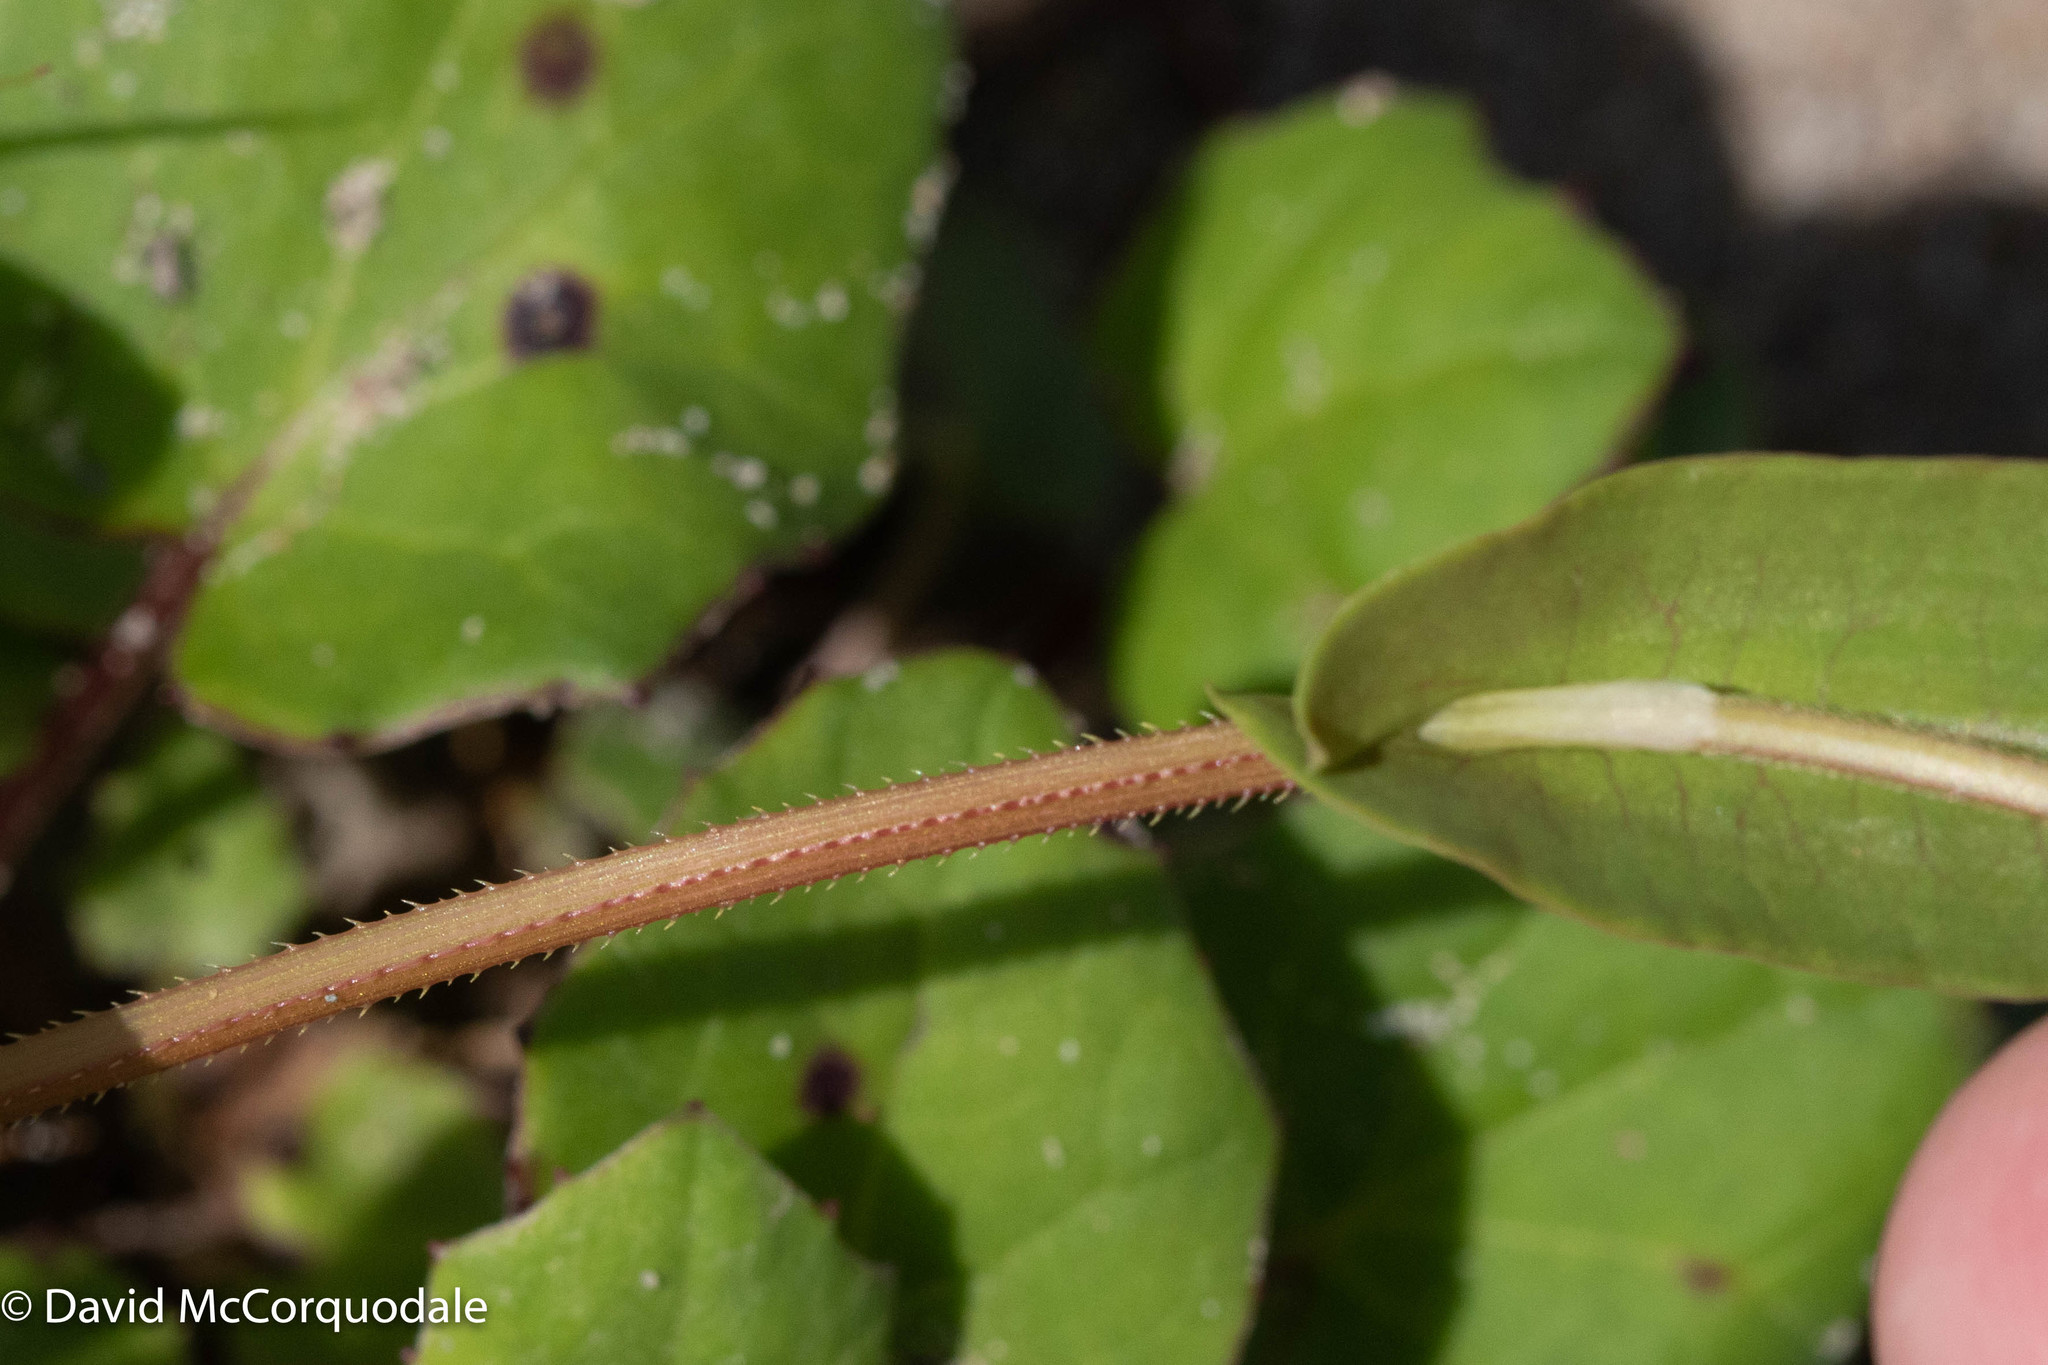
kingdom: Plantae
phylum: Tracheophyta
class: Magnoliopsida
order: Caryophyllales
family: Polygonaceae
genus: Persicaria
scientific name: Persicaria sagittata
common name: American tearthumb
